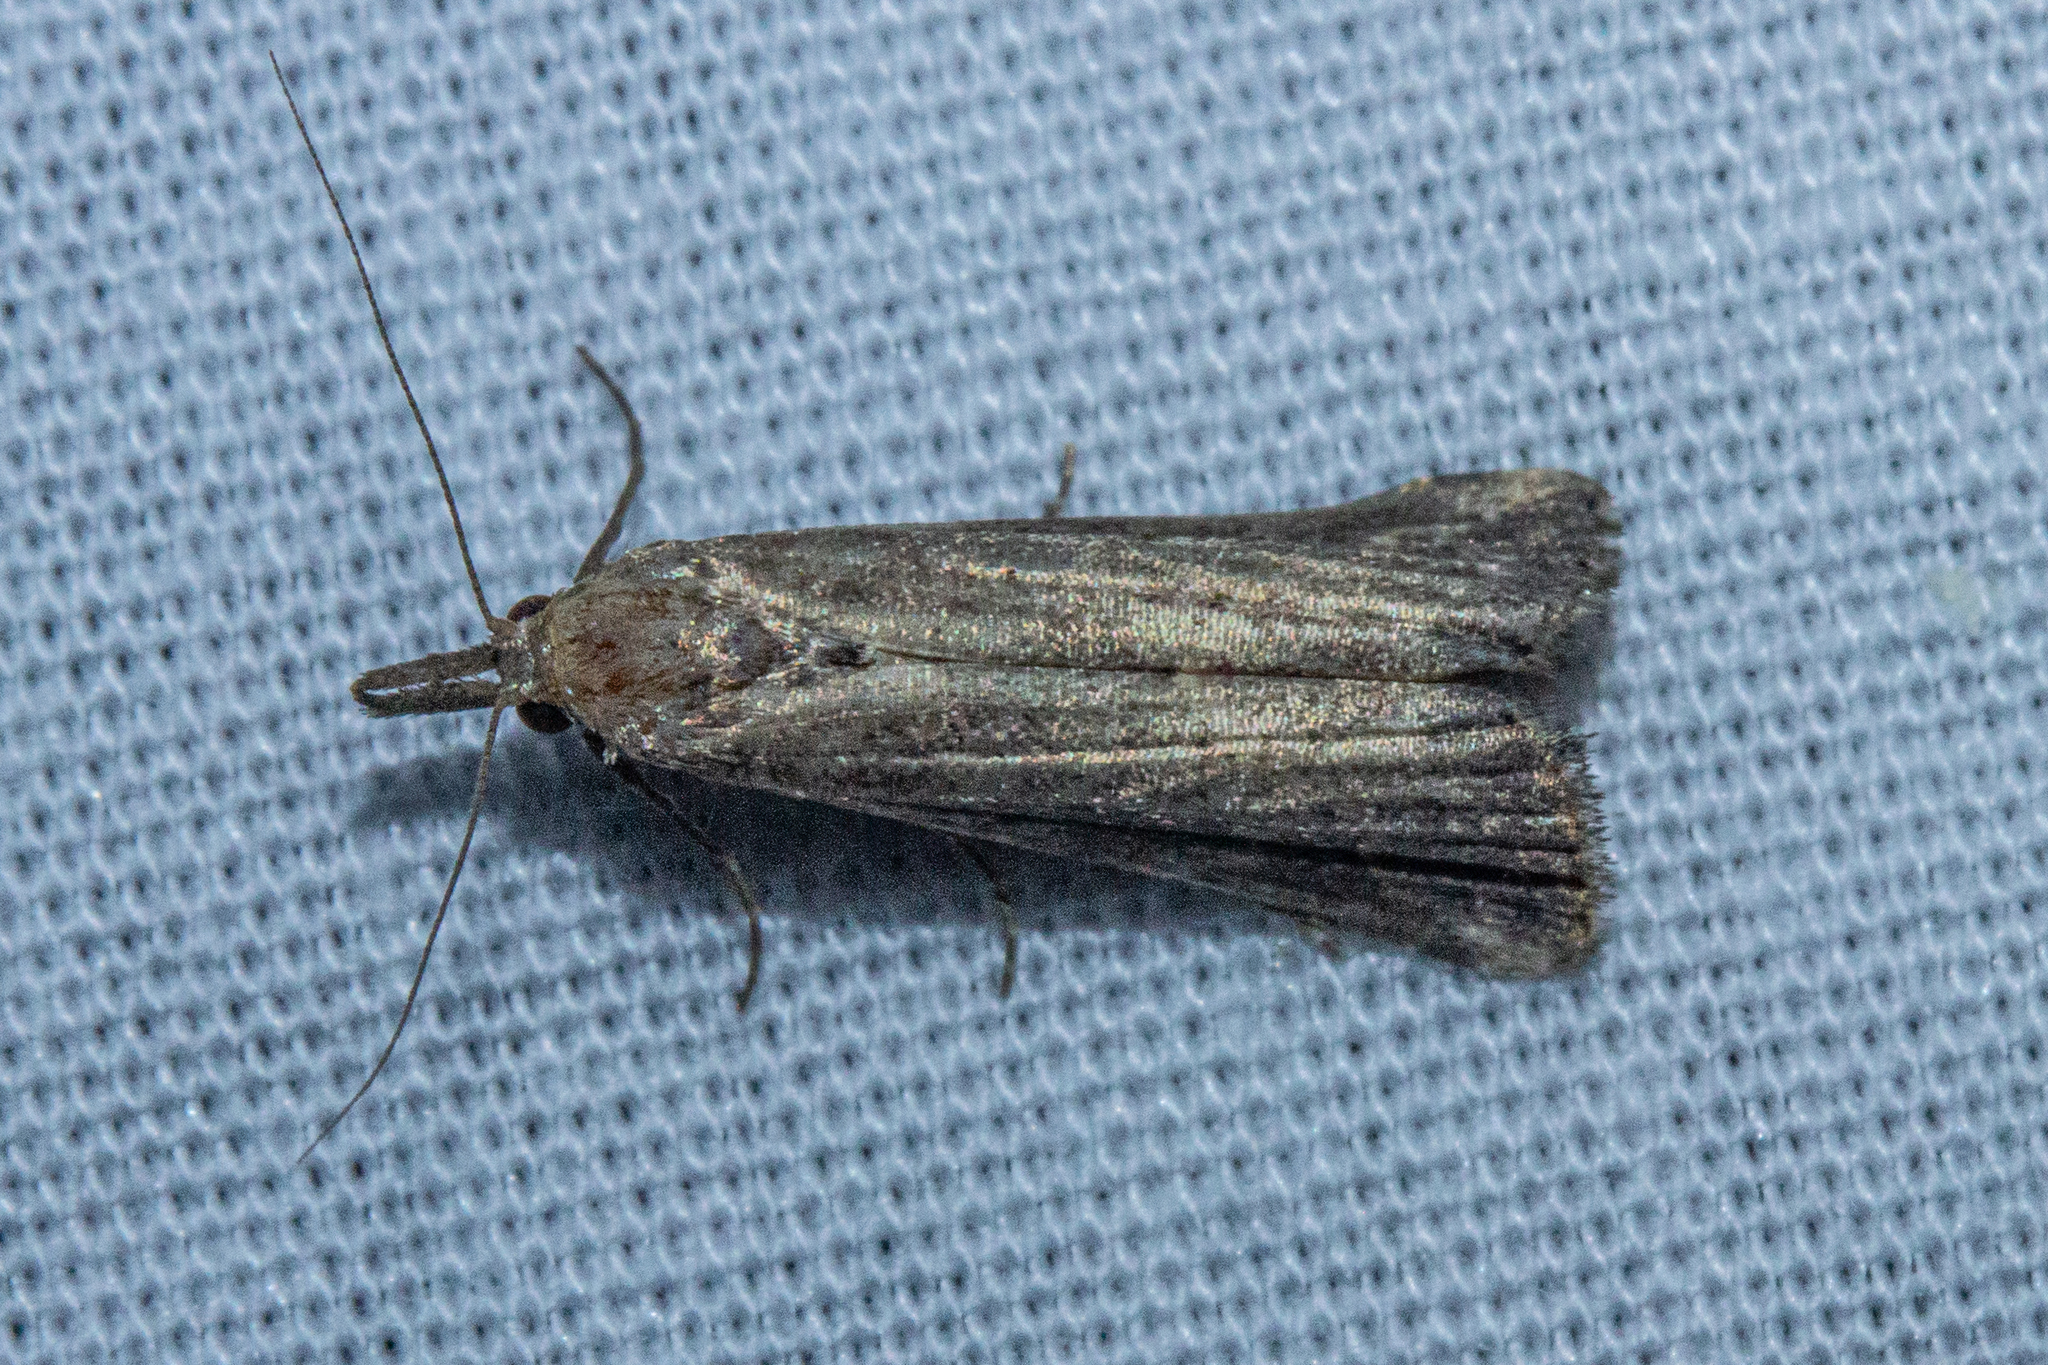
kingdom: Animalia
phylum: Arthropoda
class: Insecta
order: Lepidoptera
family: Erebidae
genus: Schrankia
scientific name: Schrankia costaestrigalis
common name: Pinion-streaked snout
